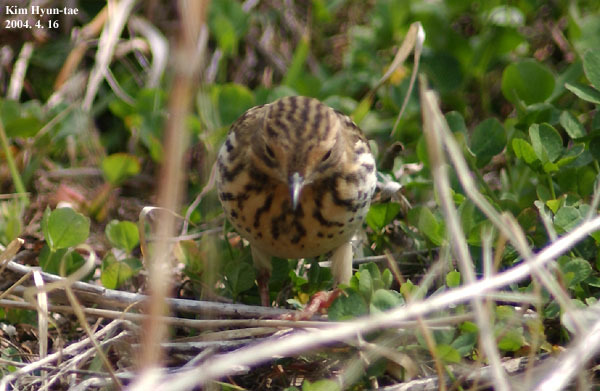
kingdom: Animalia
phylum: Chordata
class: Aves
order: Passeriformes
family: Motacillidae
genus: Anthus
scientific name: Anthus cervinus
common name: Red-throated pipit
